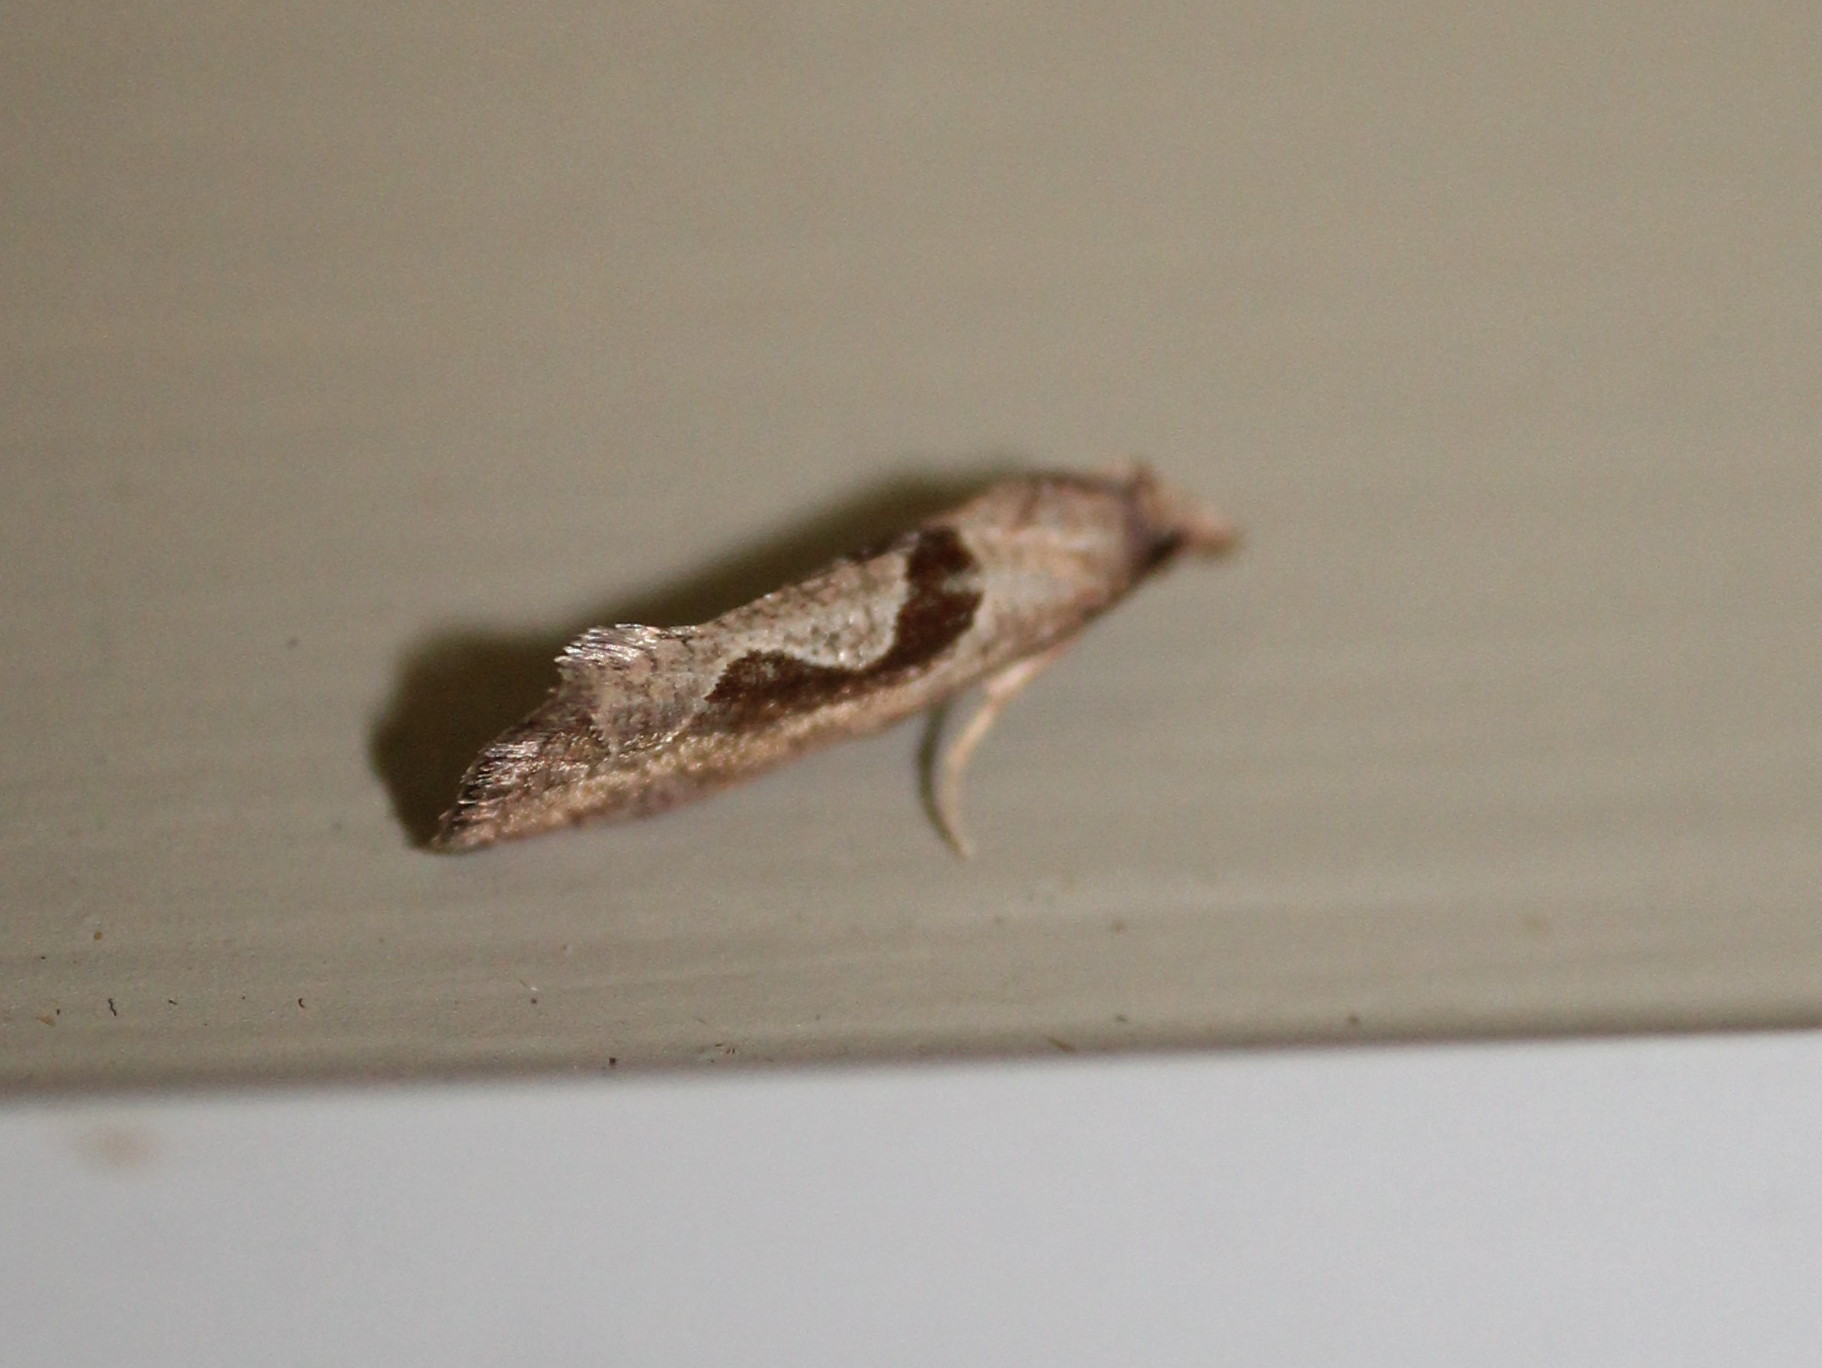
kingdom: Animalia
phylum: Arthropoda
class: Insecta
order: Lepidoptera
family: Tortricidae
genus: Pelochrista
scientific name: Pelochrista similiana
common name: Similar eucosma
